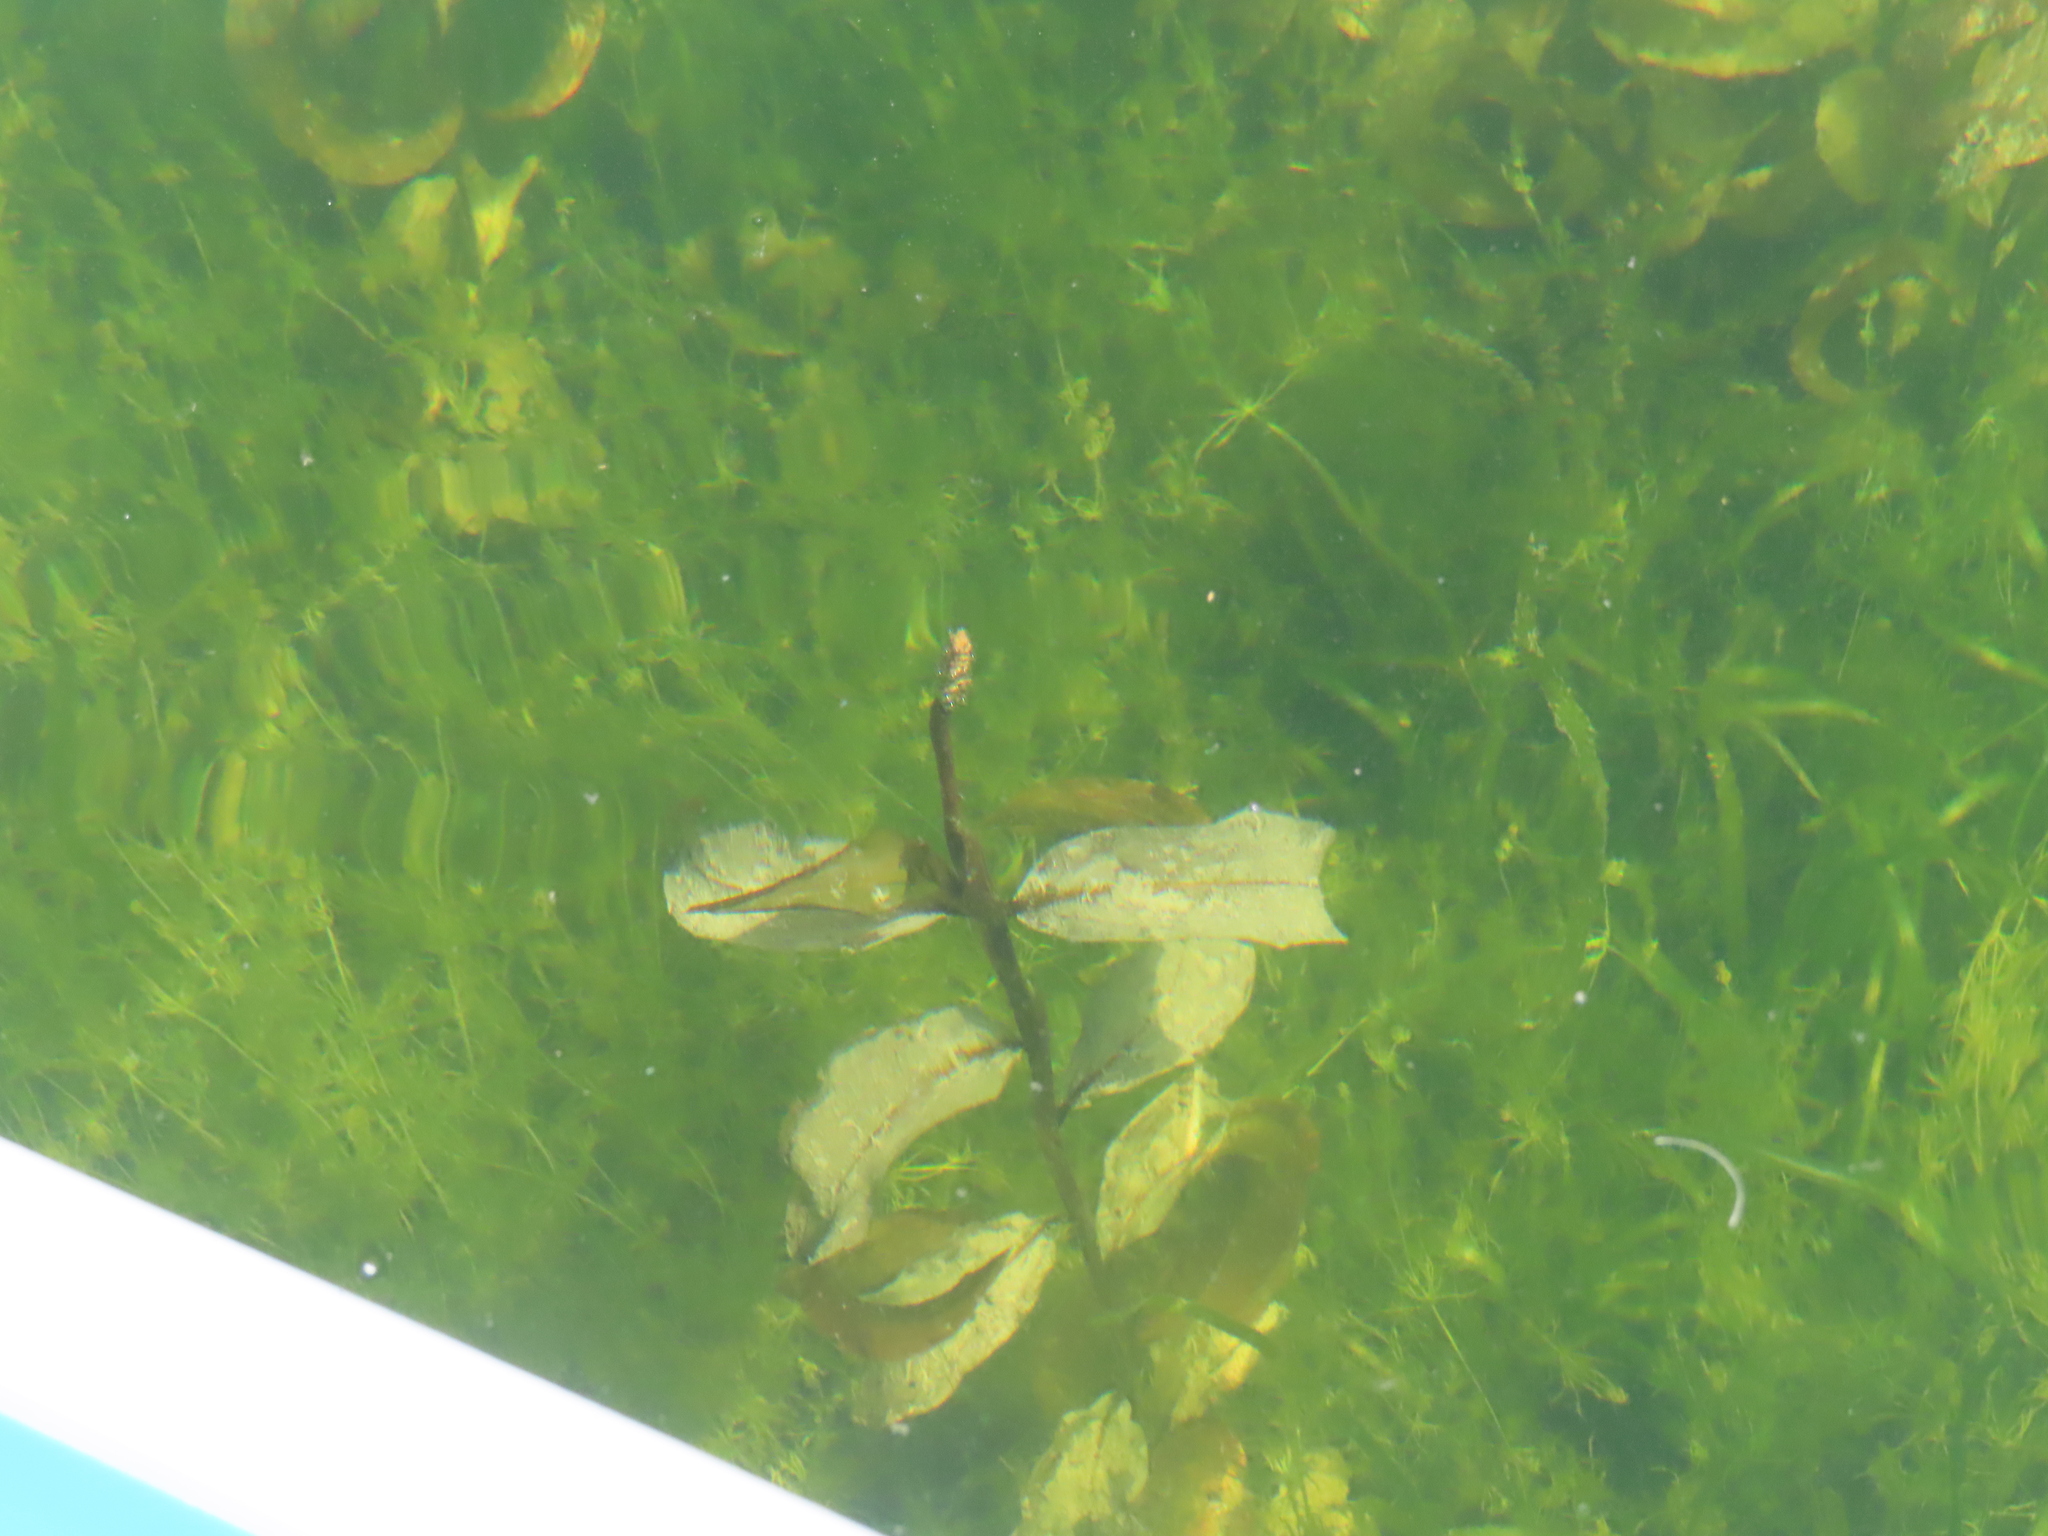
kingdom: Plantae
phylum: Tracheophyta
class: Liliopsida
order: Alismatales
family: Potamogetonaceae
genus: Potamogeton
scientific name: Potamogeton amplifolius
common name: Broad-leaved pondweed
